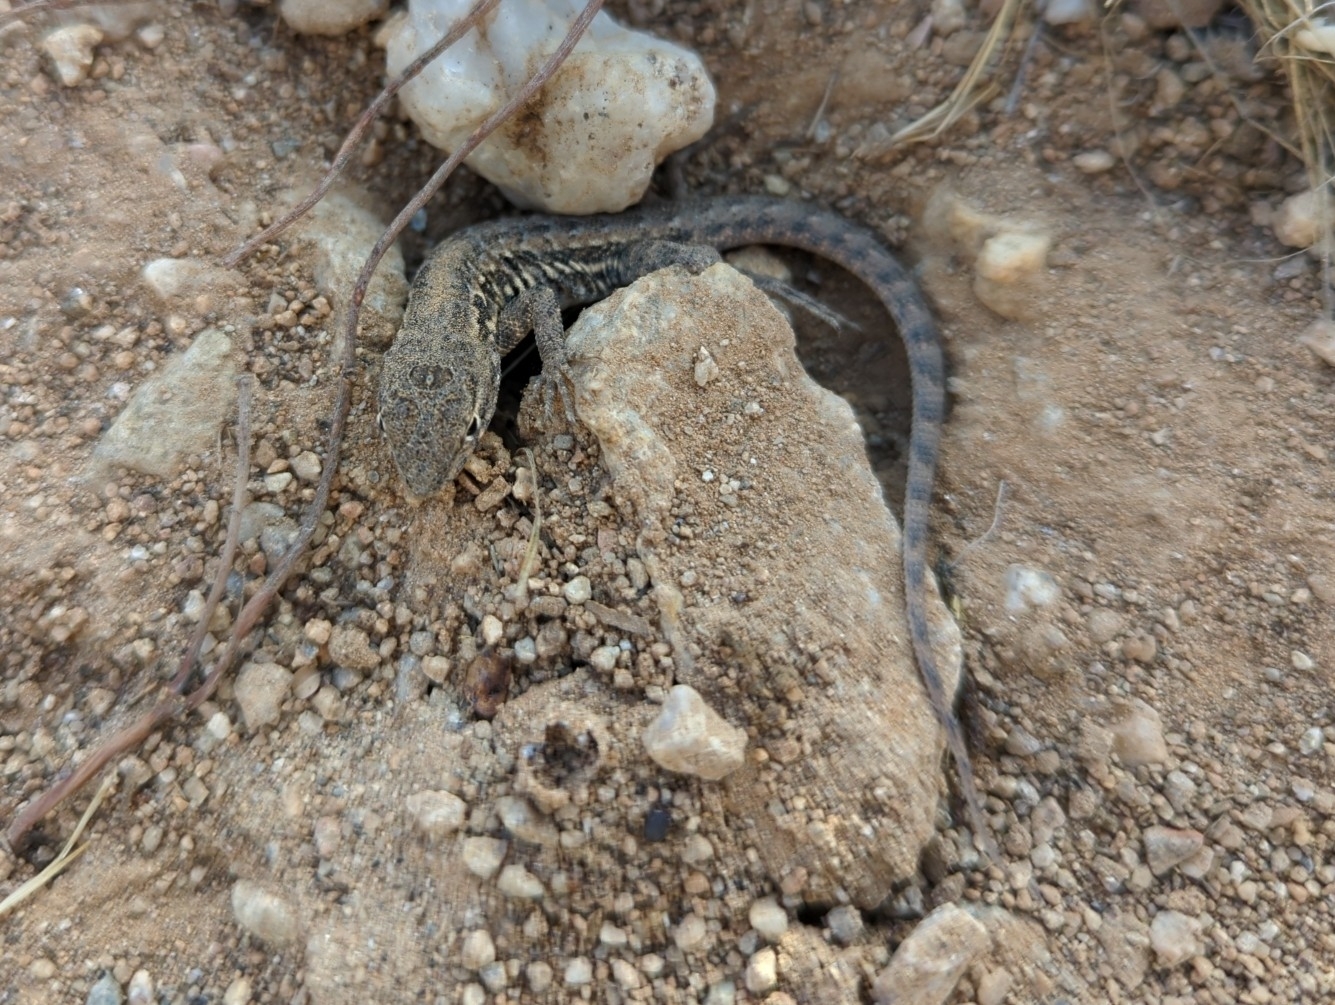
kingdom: Animalia
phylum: Chordata
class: Squamata
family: Phrynosomatidae
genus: Uta
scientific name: Uta stansburiana
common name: Side-blotched lizard
